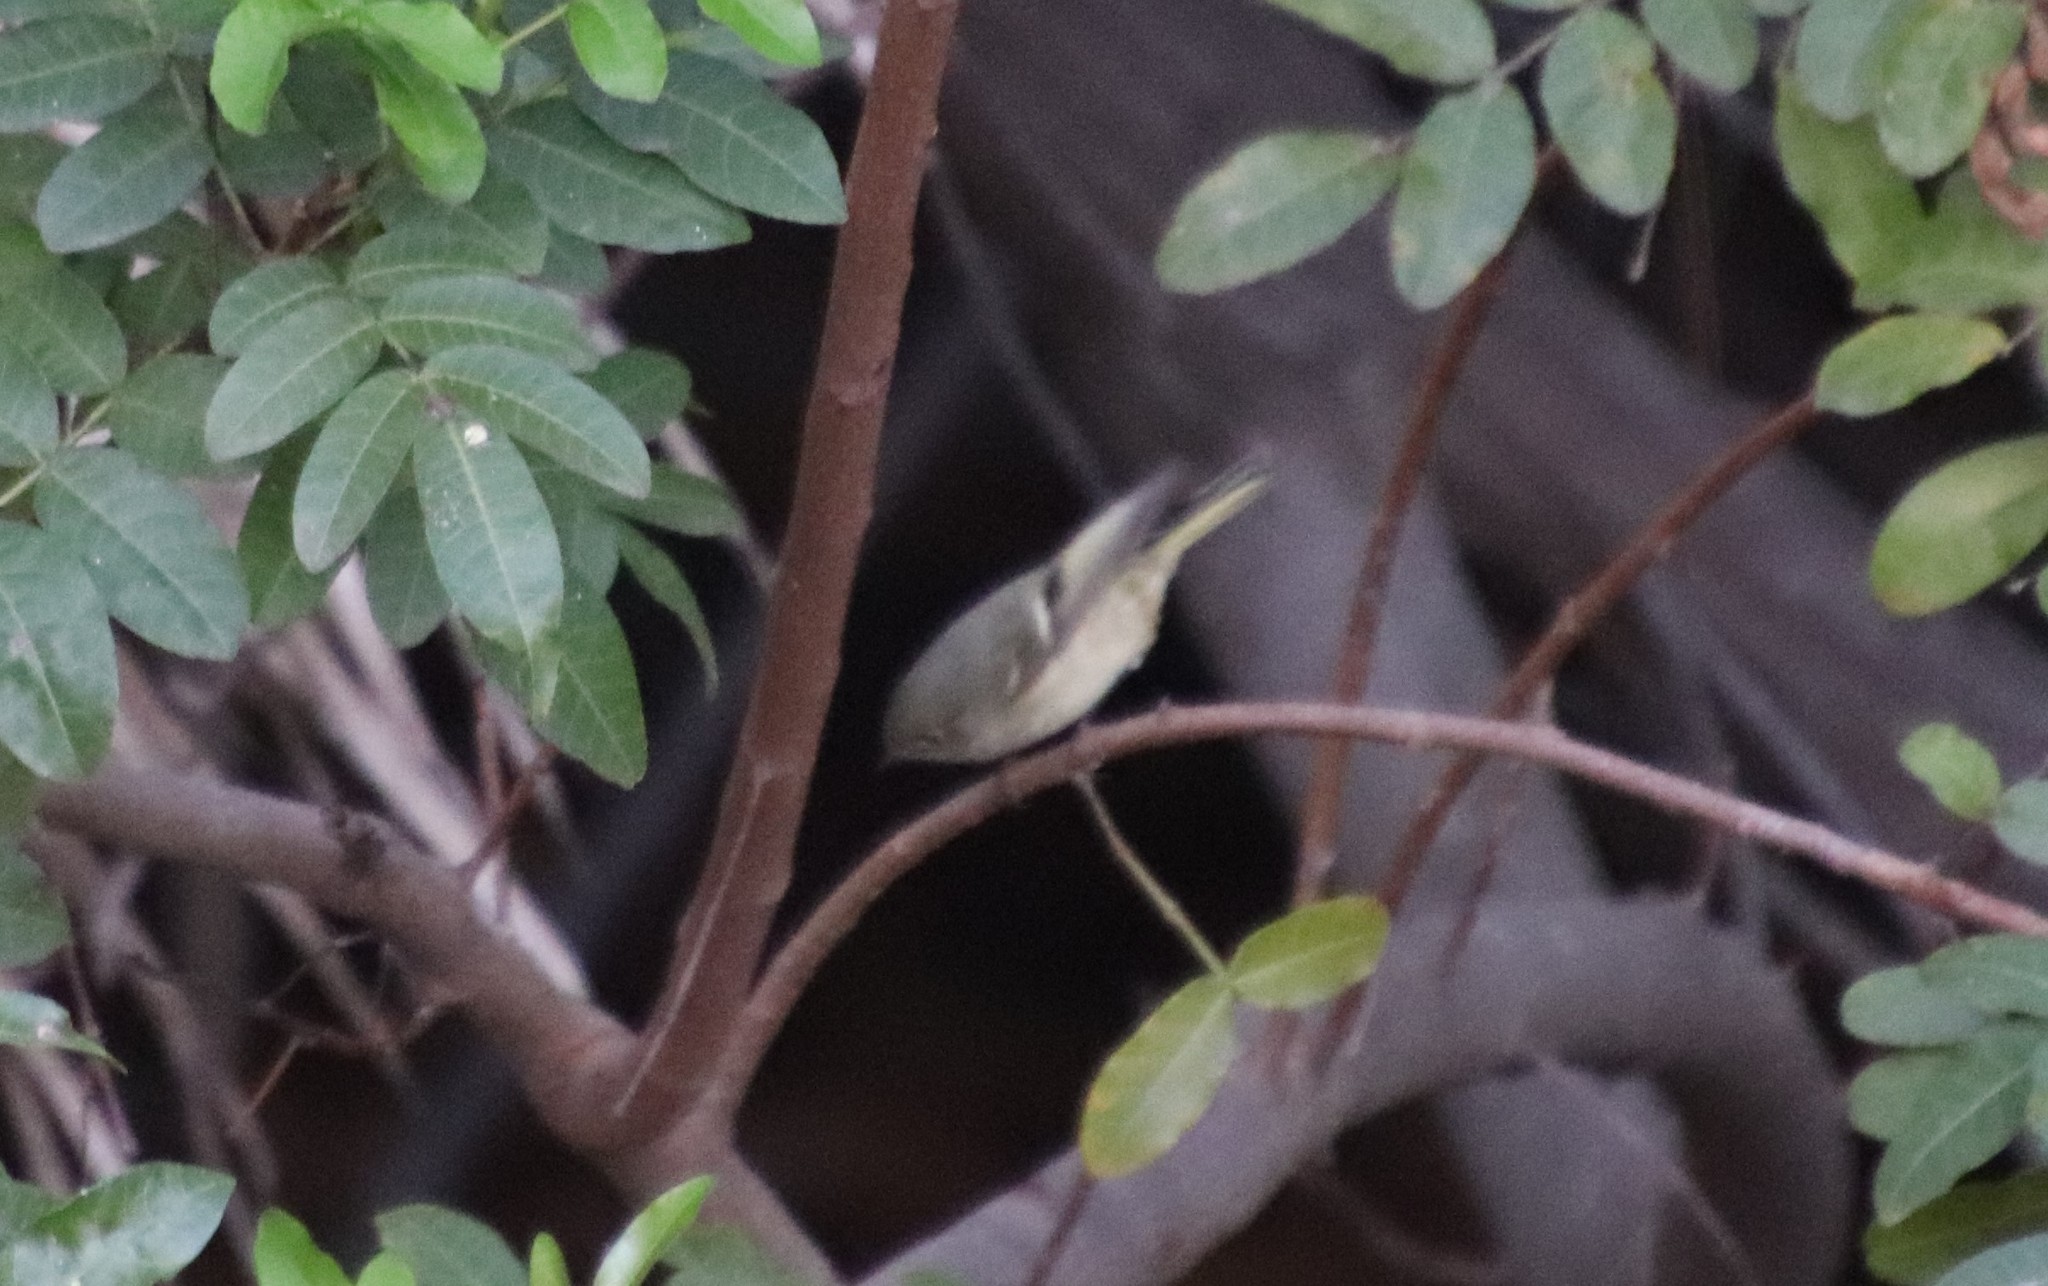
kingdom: Animalia
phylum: Chordata
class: Aves
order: Passeriformes
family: Regulidae
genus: Regulus
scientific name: Regulus calendula
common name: Ruby-crowned kinglet
